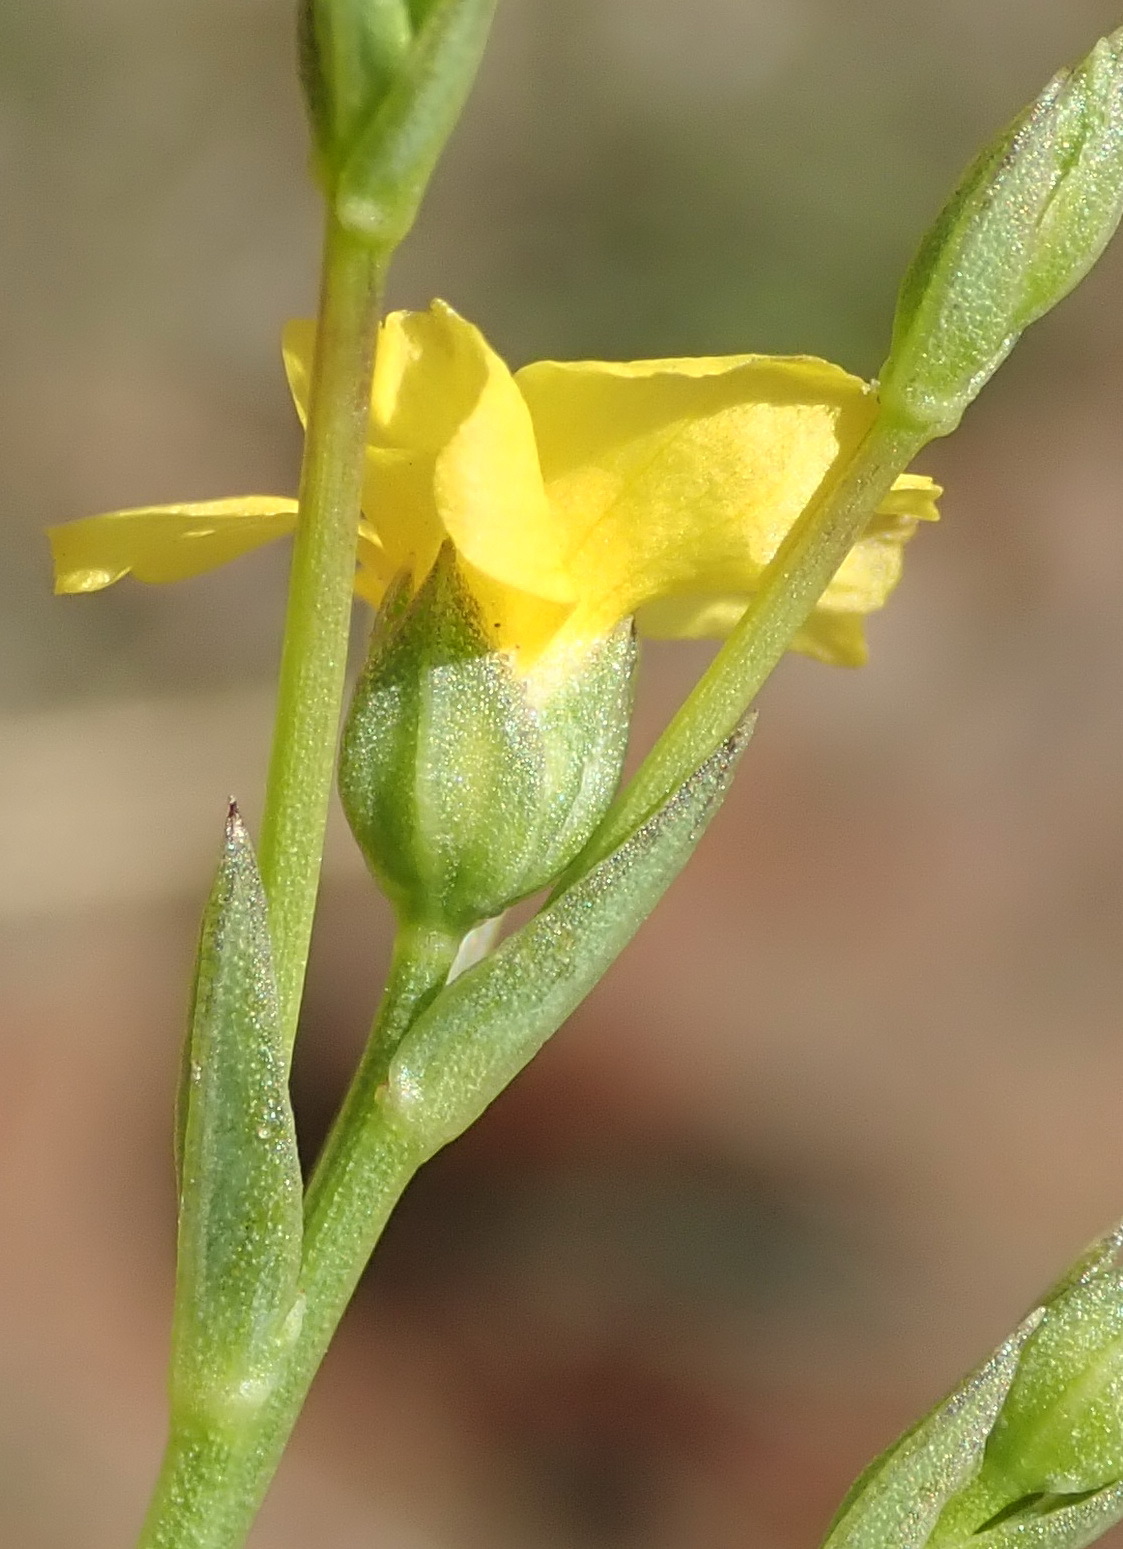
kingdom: Plantae
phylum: Tracheophyta
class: Magnoliopsida
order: Malpighiales
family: Linaceae
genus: Linum
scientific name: Linum thunbergii
